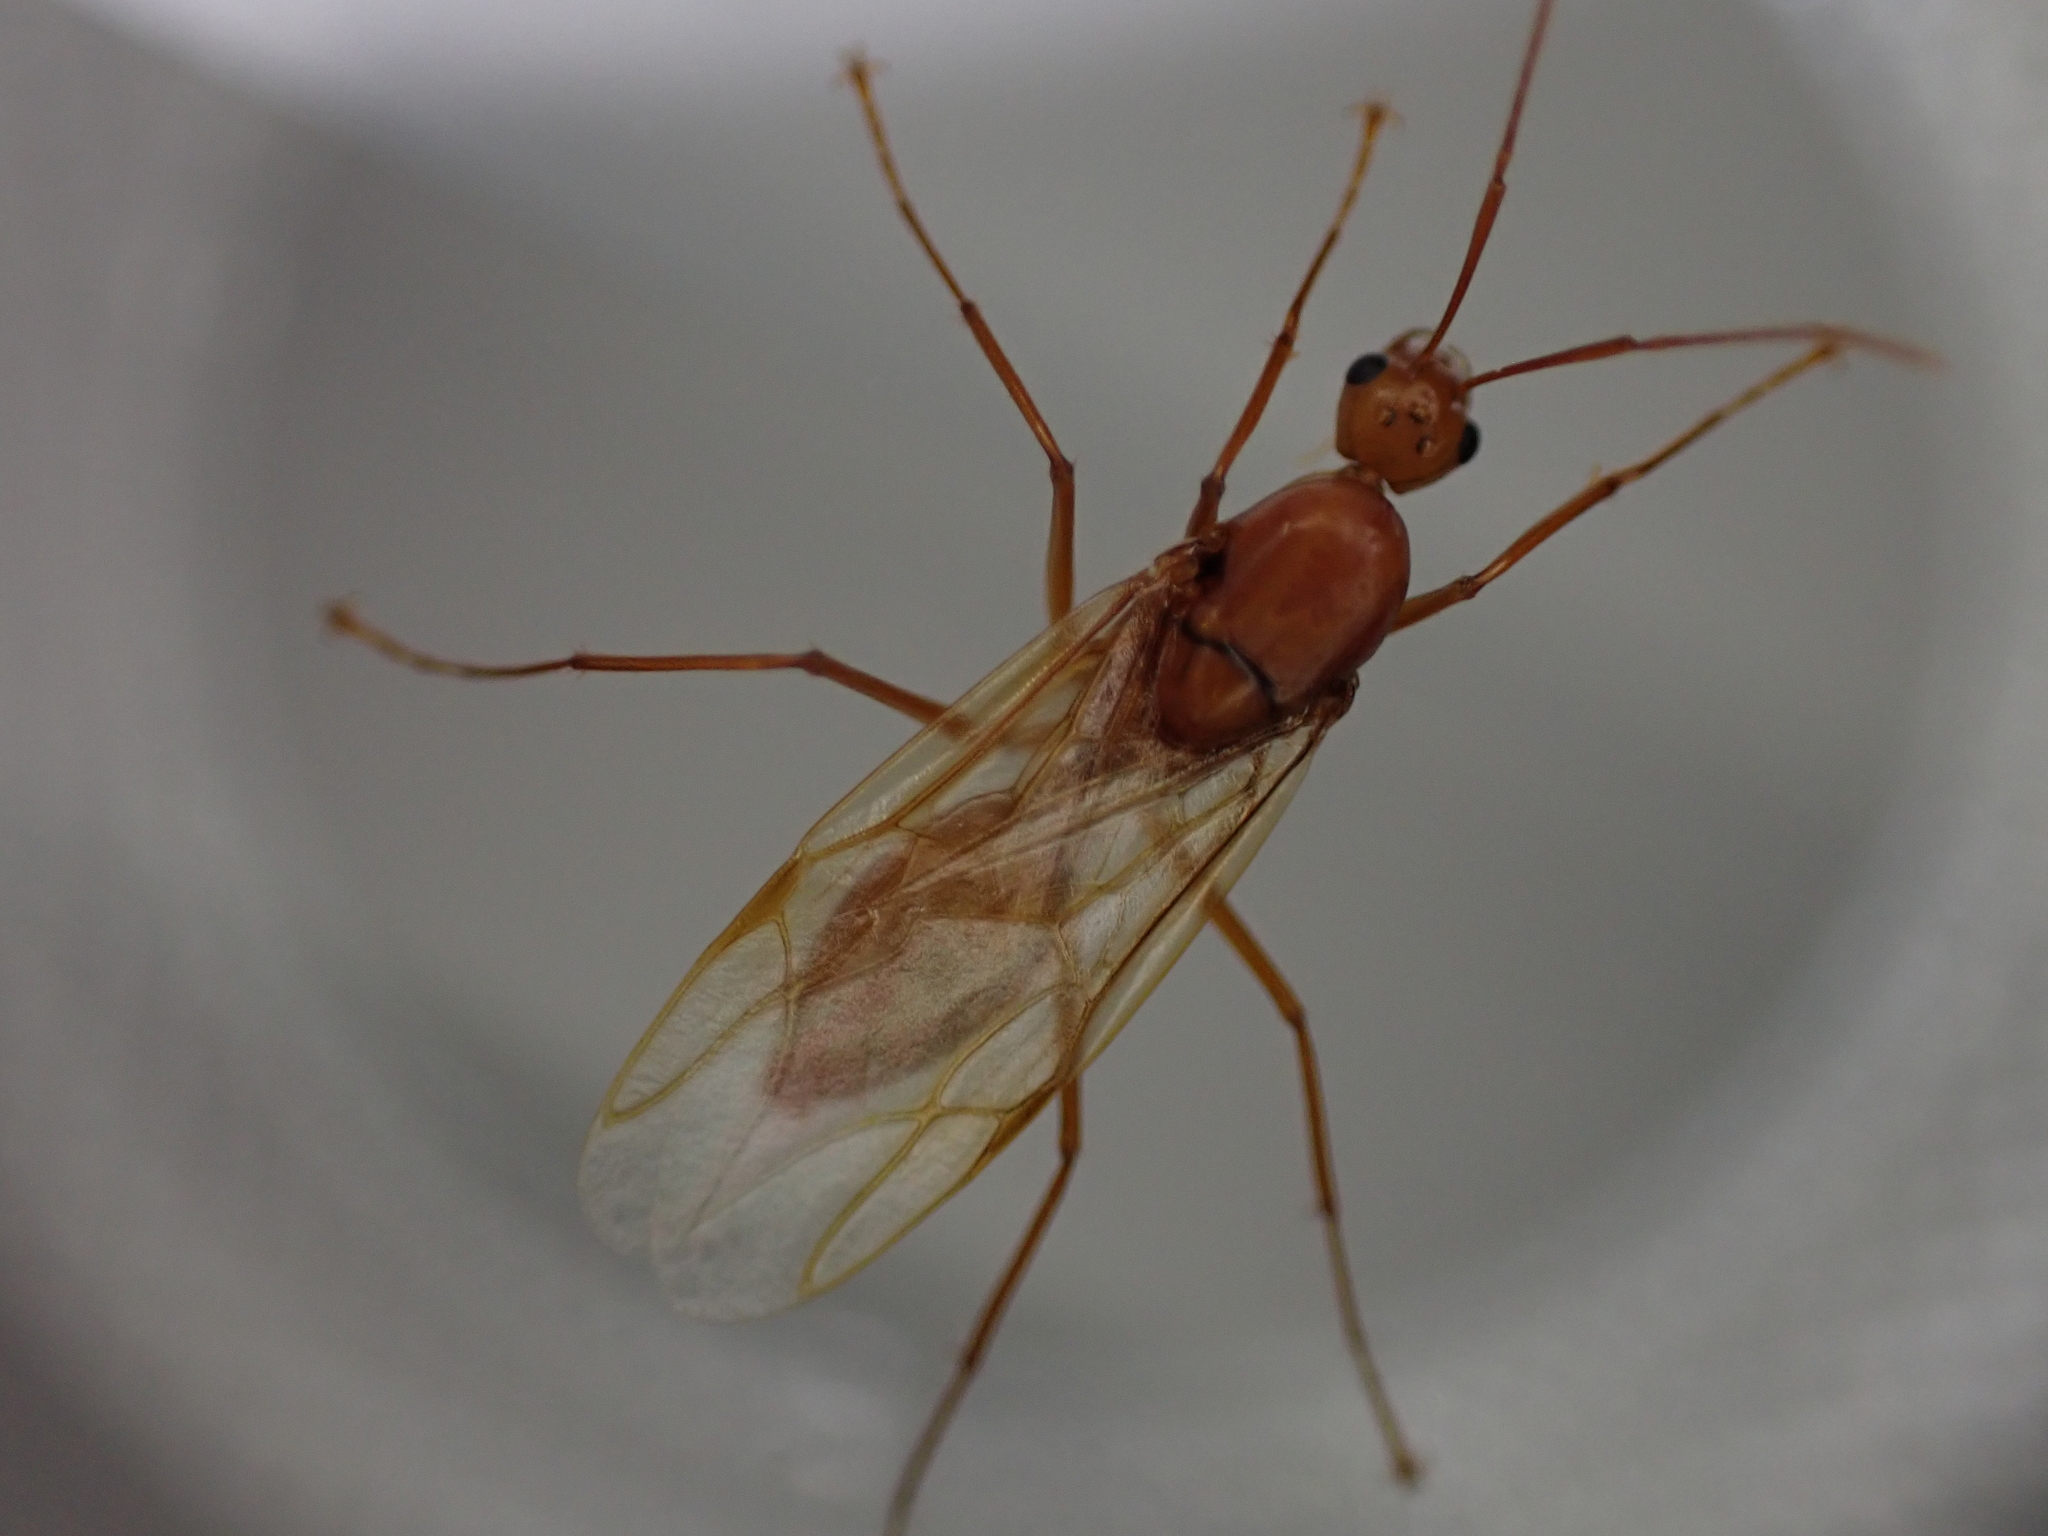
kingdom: Animalia
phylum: Arthropoda
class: Insecta
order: Hymenoptera
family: Formicidae
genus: Camponotus
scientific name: Camponotus castaneus
